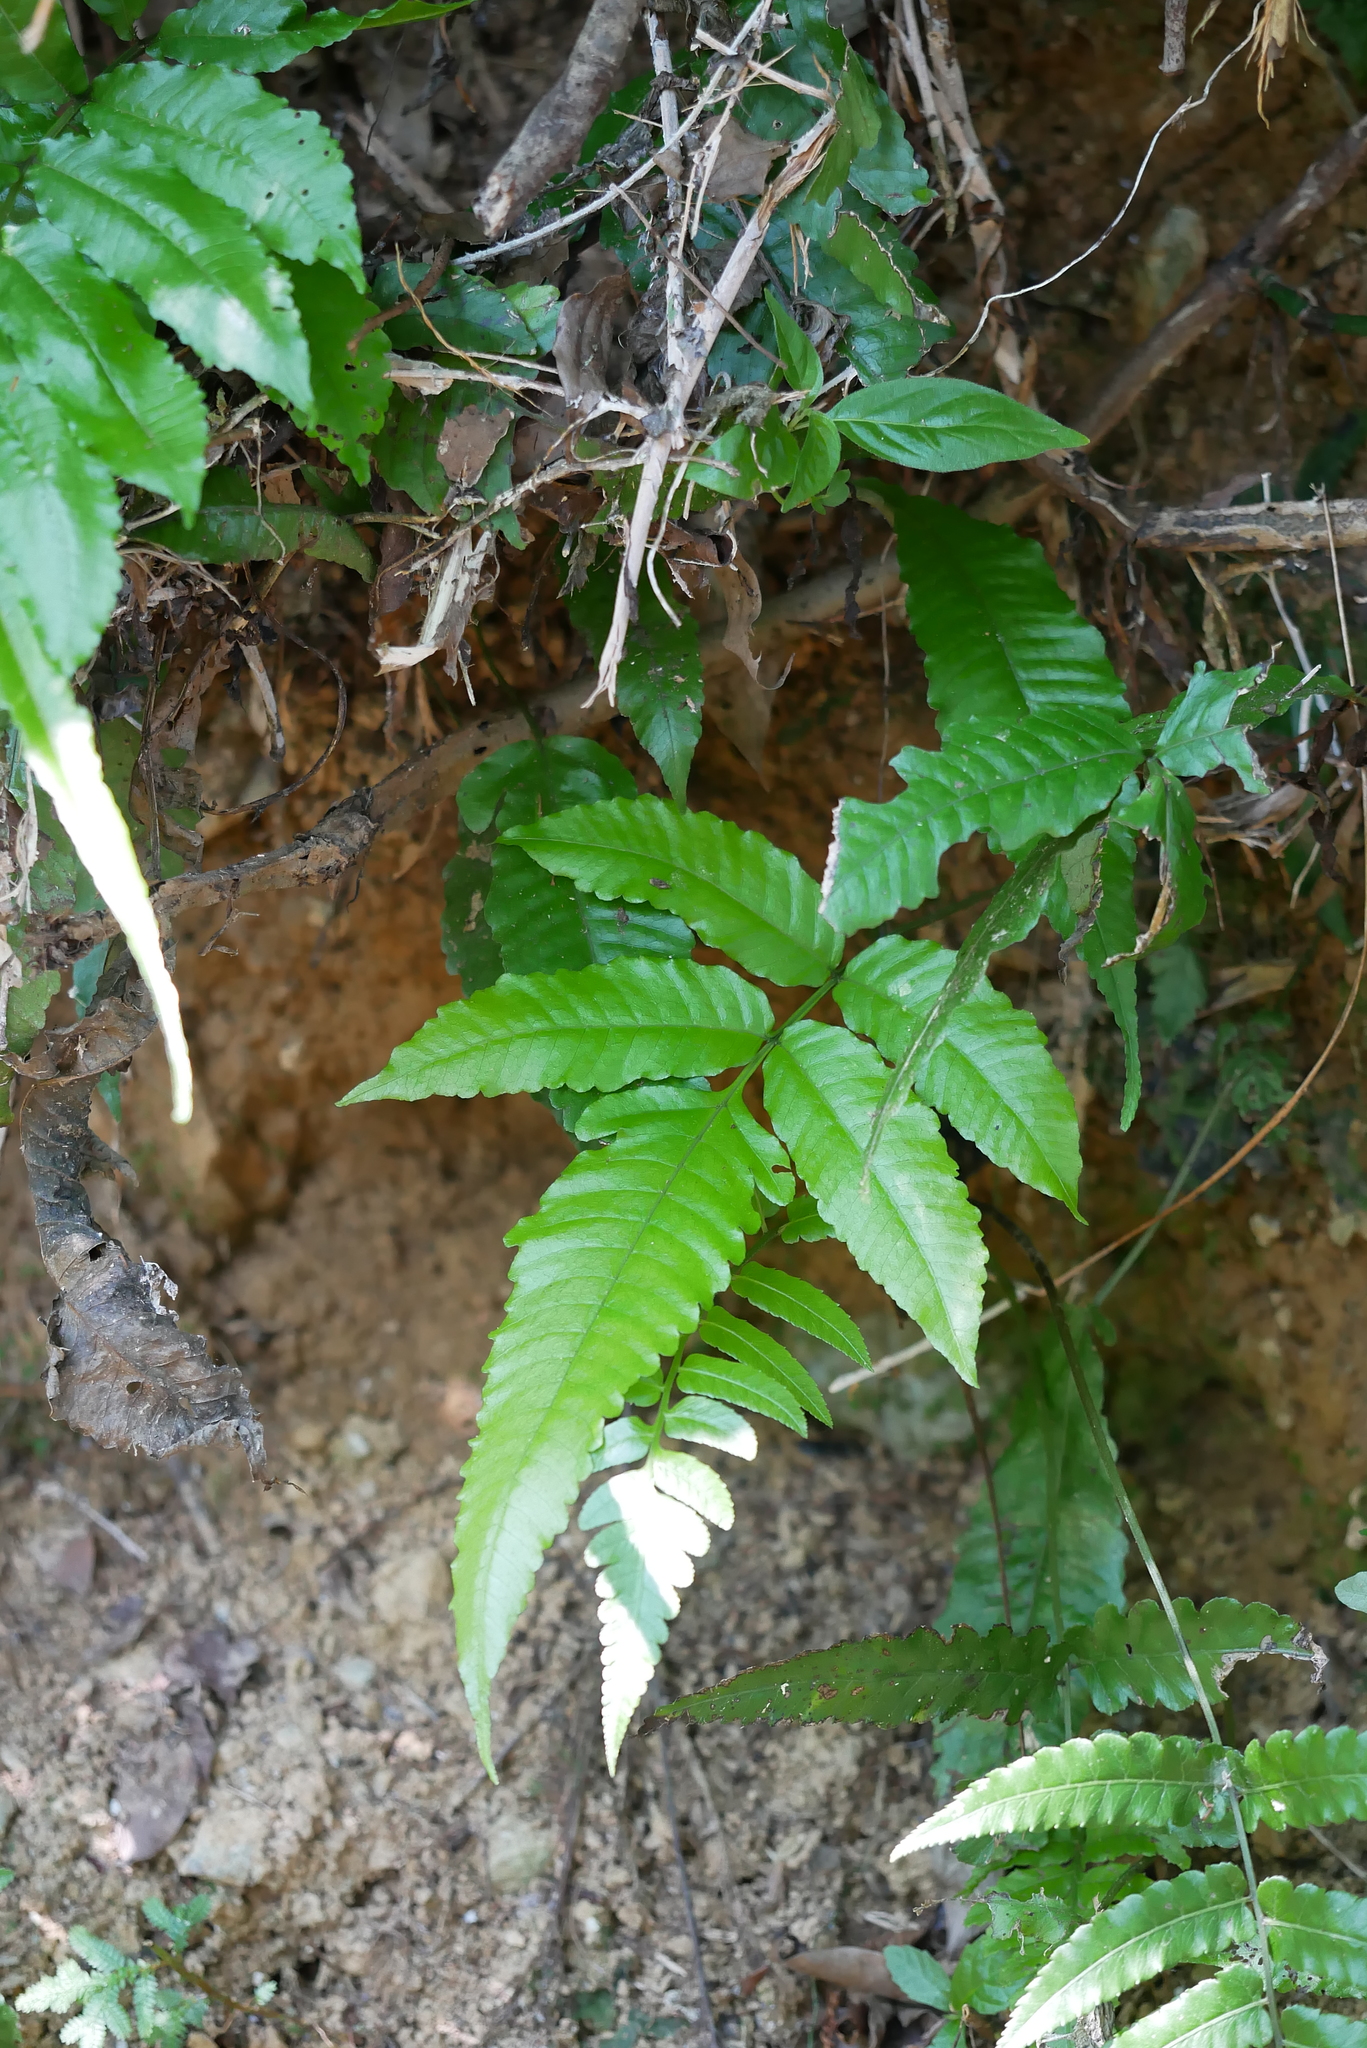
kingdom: Plantae
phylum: Tracheophyta
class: Polypodiopsida
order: Polypodiales
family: Dryopteridaceae
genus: Bolbitis
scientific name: Bolbitis heteroclita
